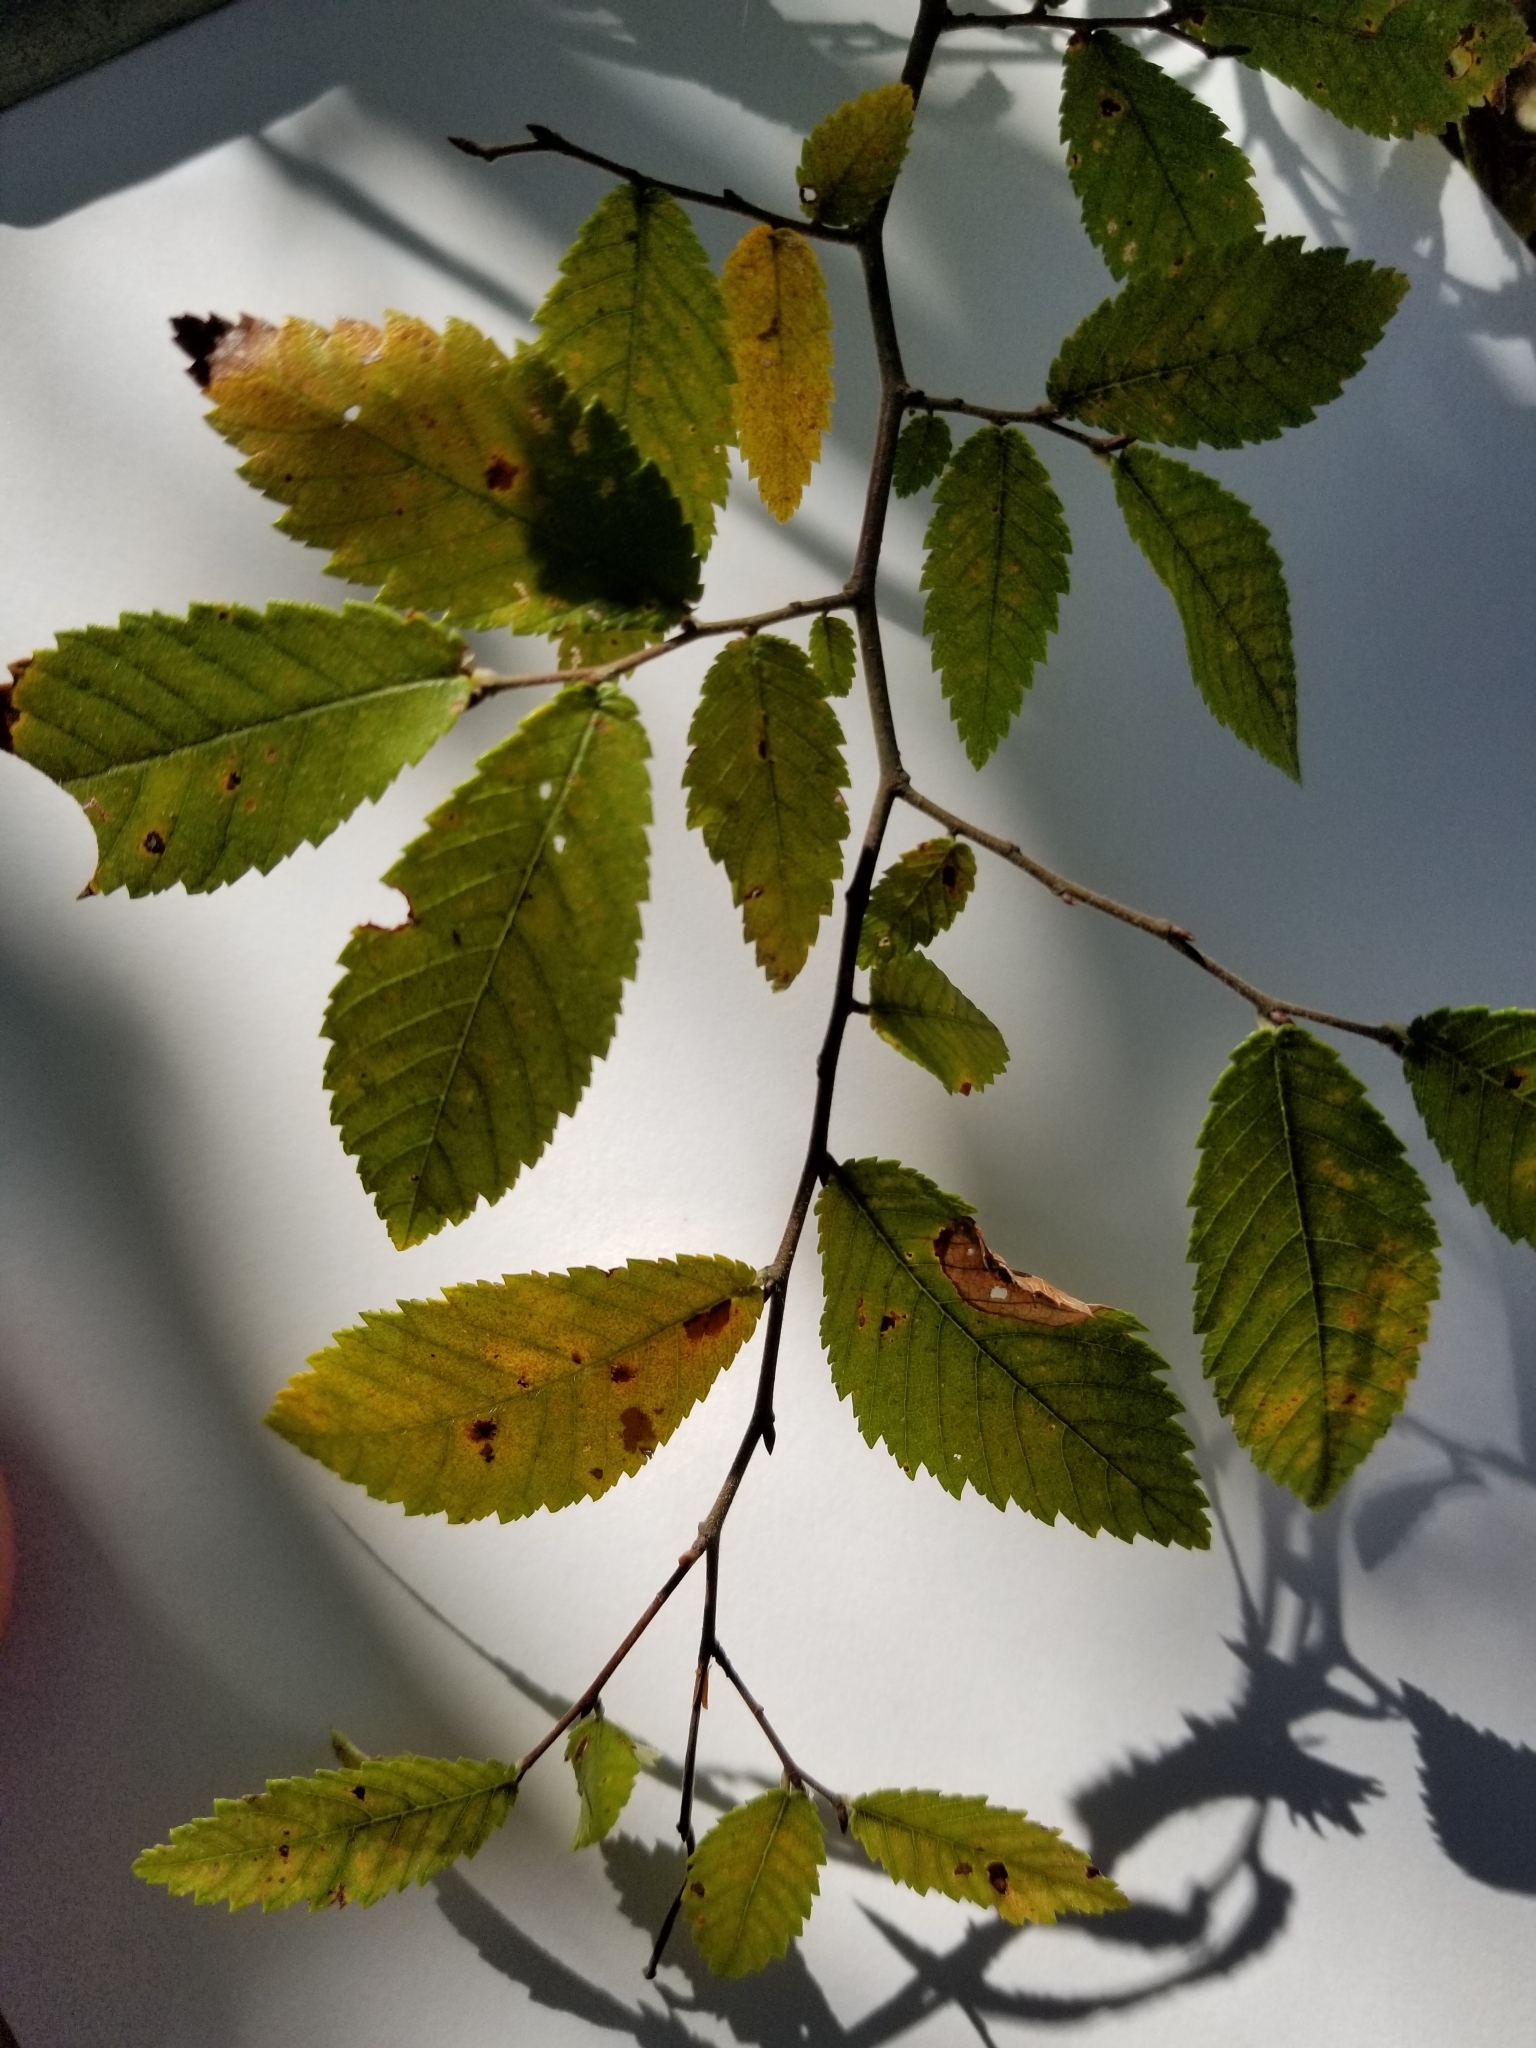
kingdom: Plantae
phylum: Tracheophyta
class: Magnoliopsida
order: Rosales
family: Ulmaceae
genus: Ulmus
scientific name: Ulmus crassifolia
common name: Basket elm
